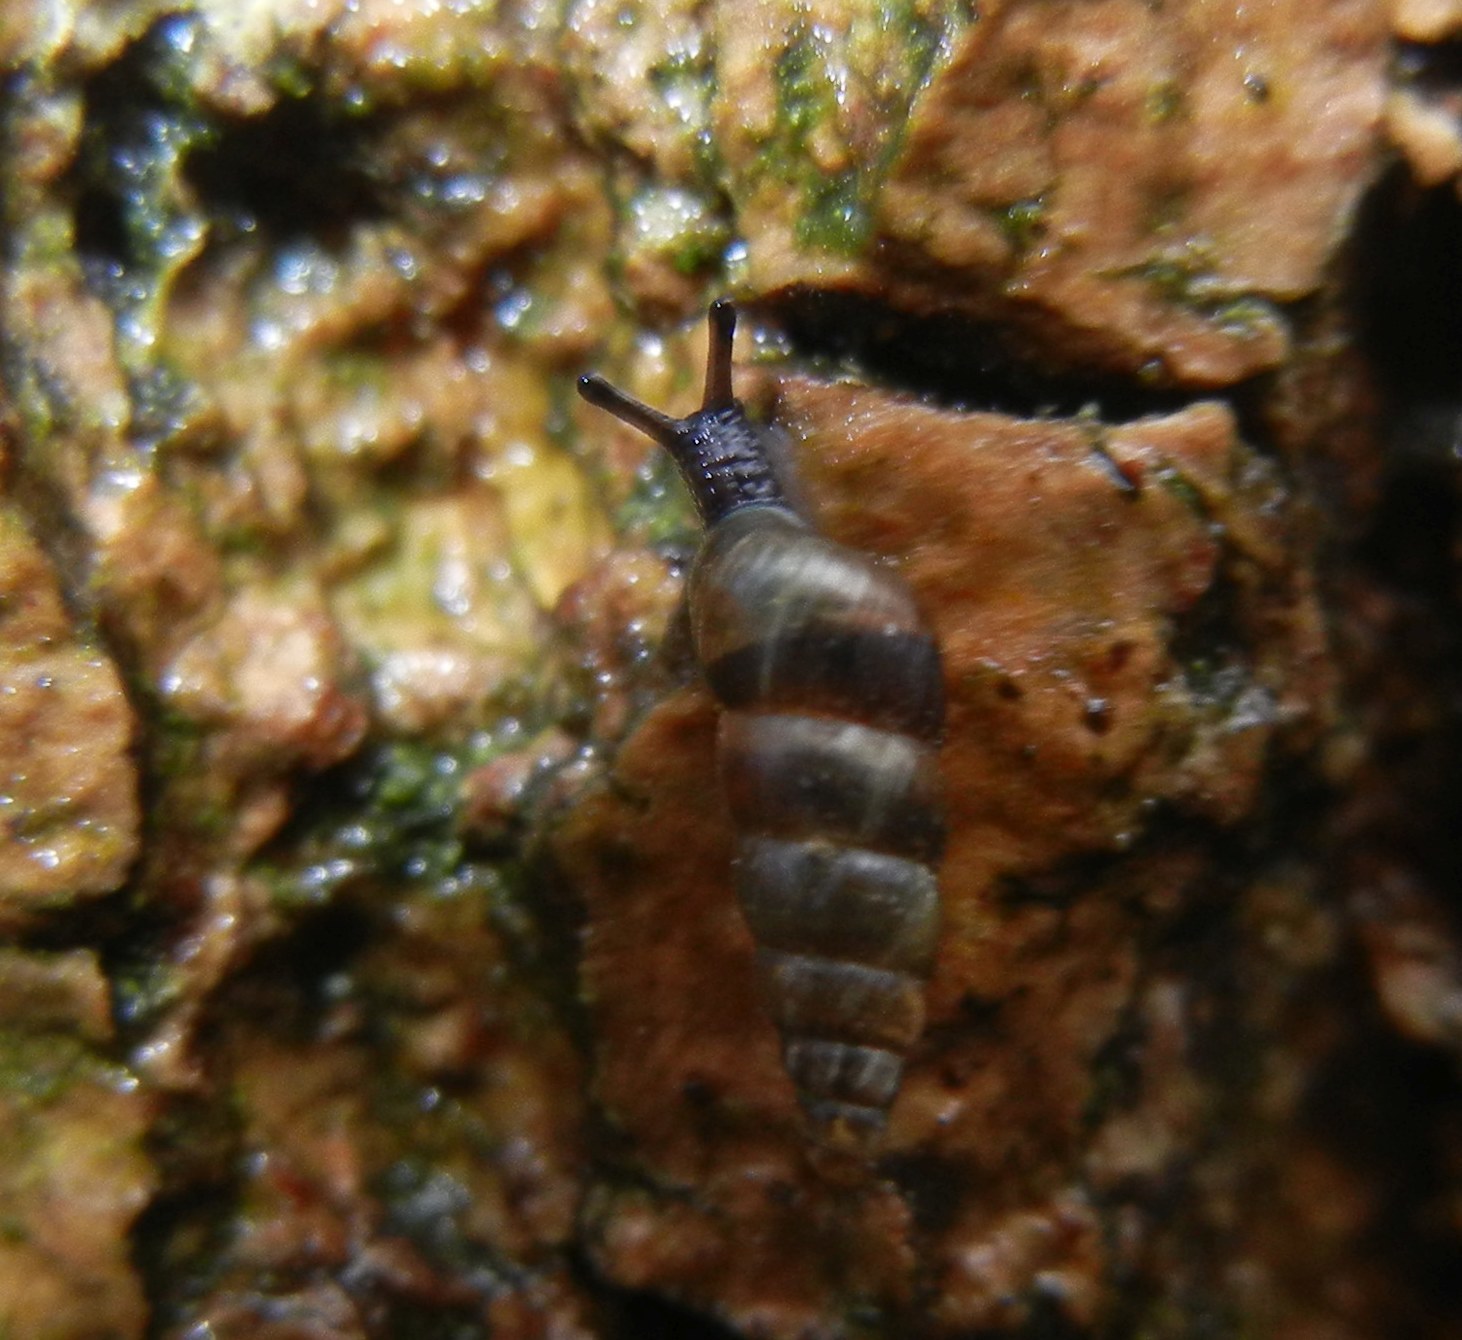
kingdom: Animalia
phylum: Mollusca
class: Gastropoda
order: Stylommatophora
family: Clausiliidae
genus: Balea
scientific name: Balea heydeni
